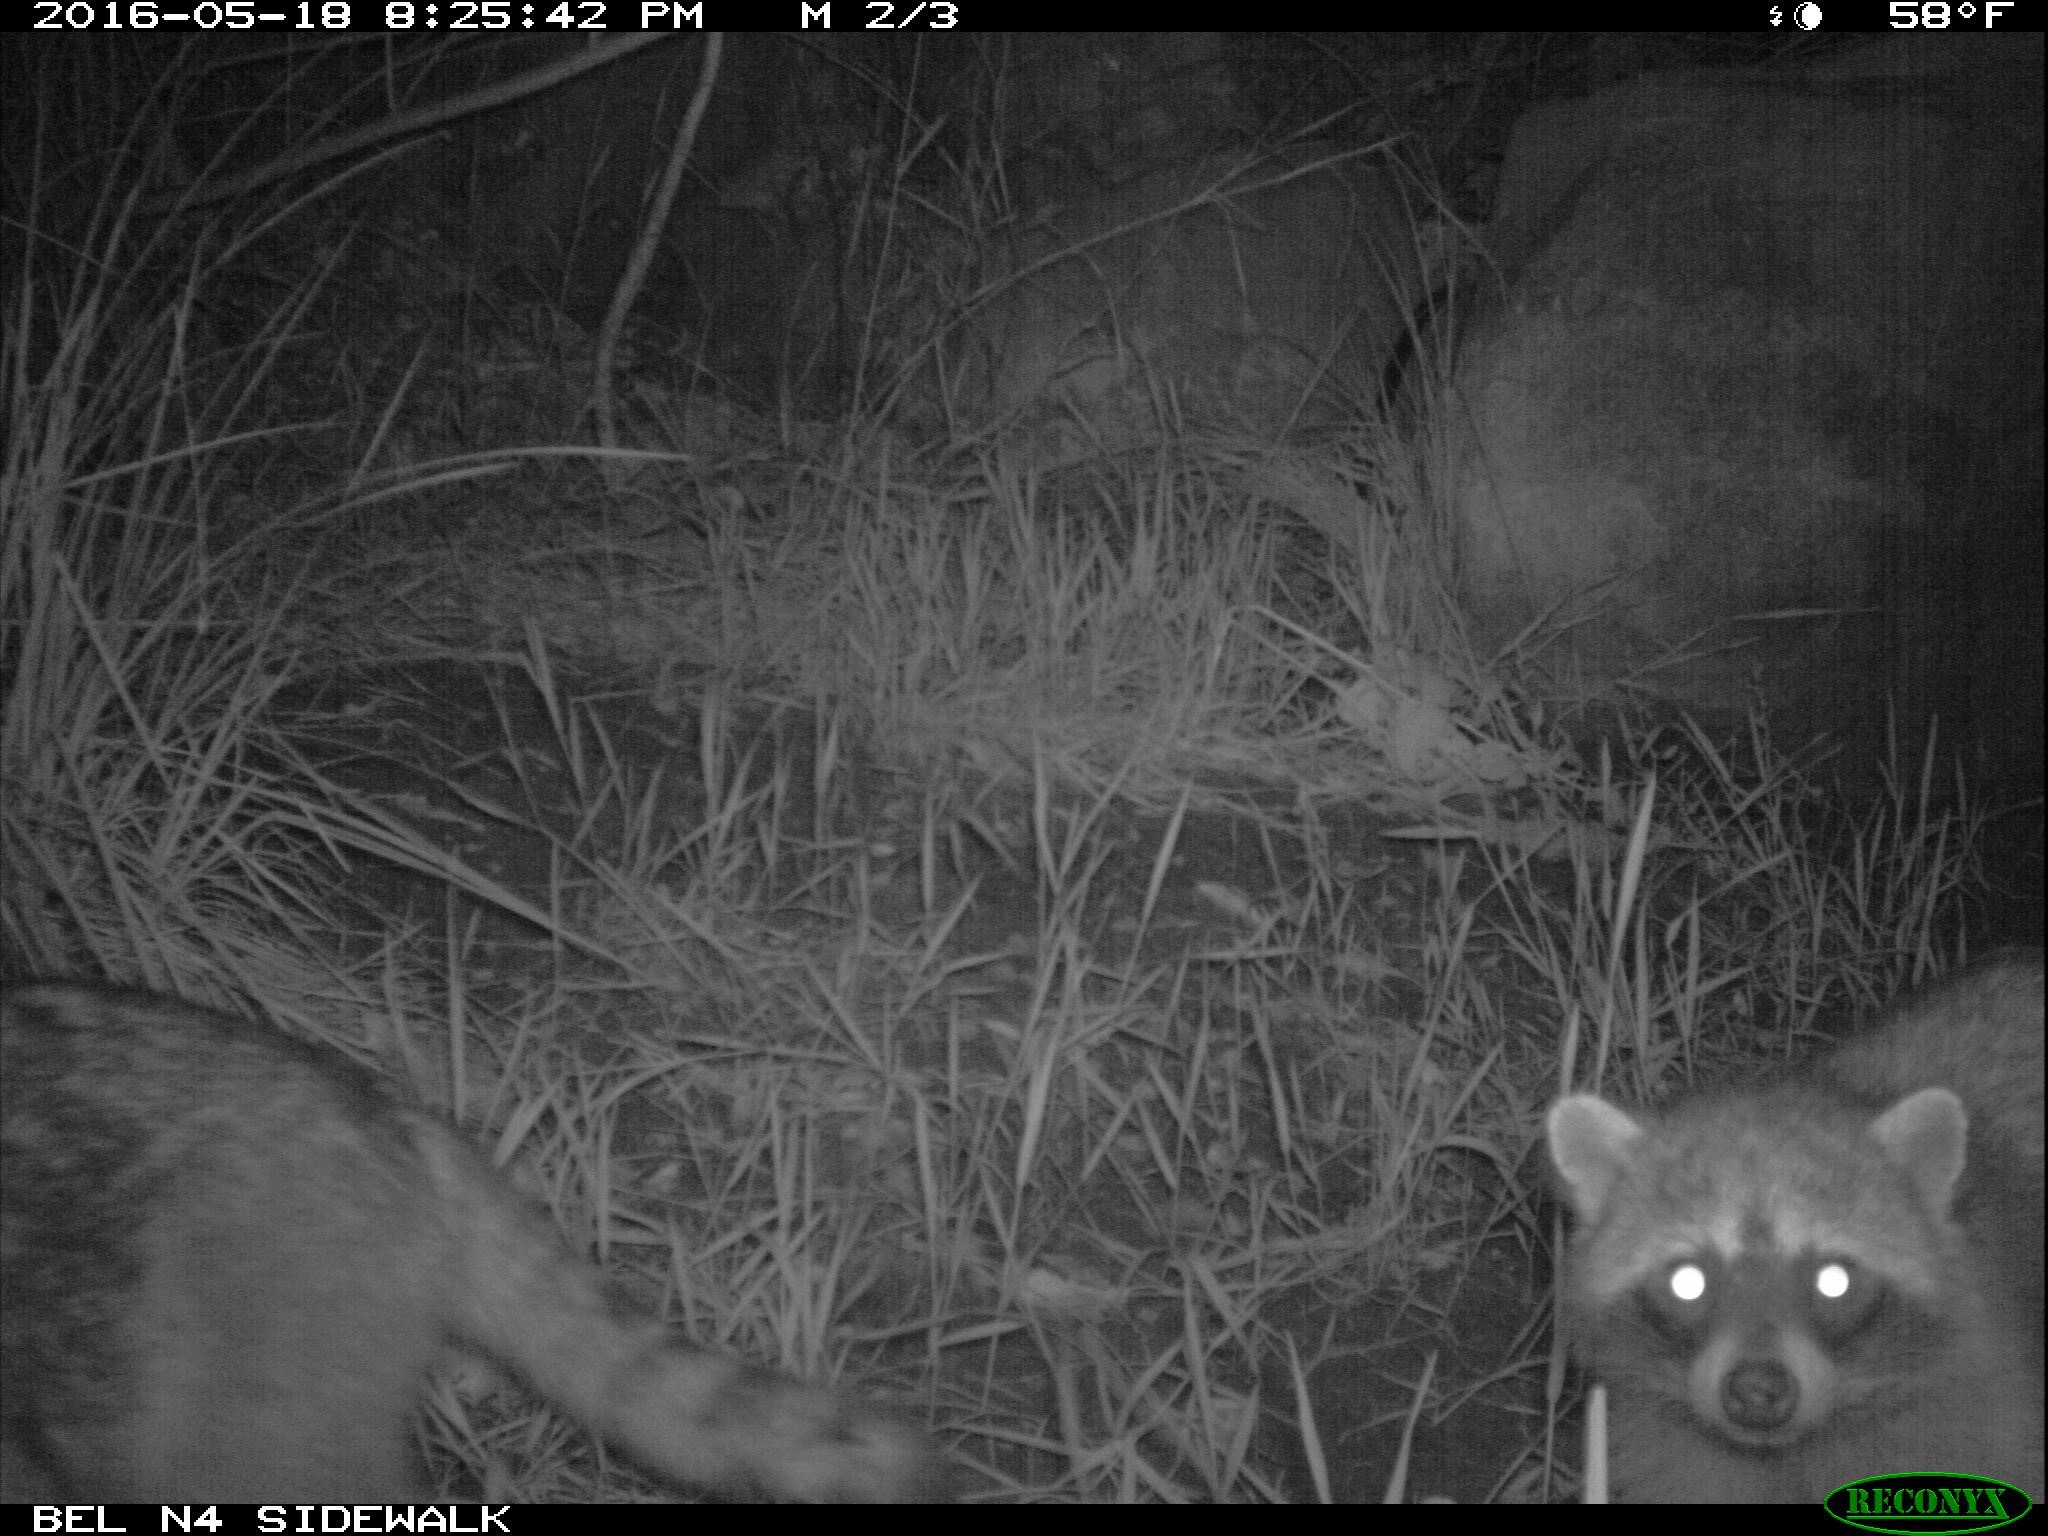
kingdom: Animalia
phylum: Chordata
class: Mammalia
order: Carnivora
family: Procyonidae
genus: Procyon
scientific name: Procyon lotor
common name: Raccoon
